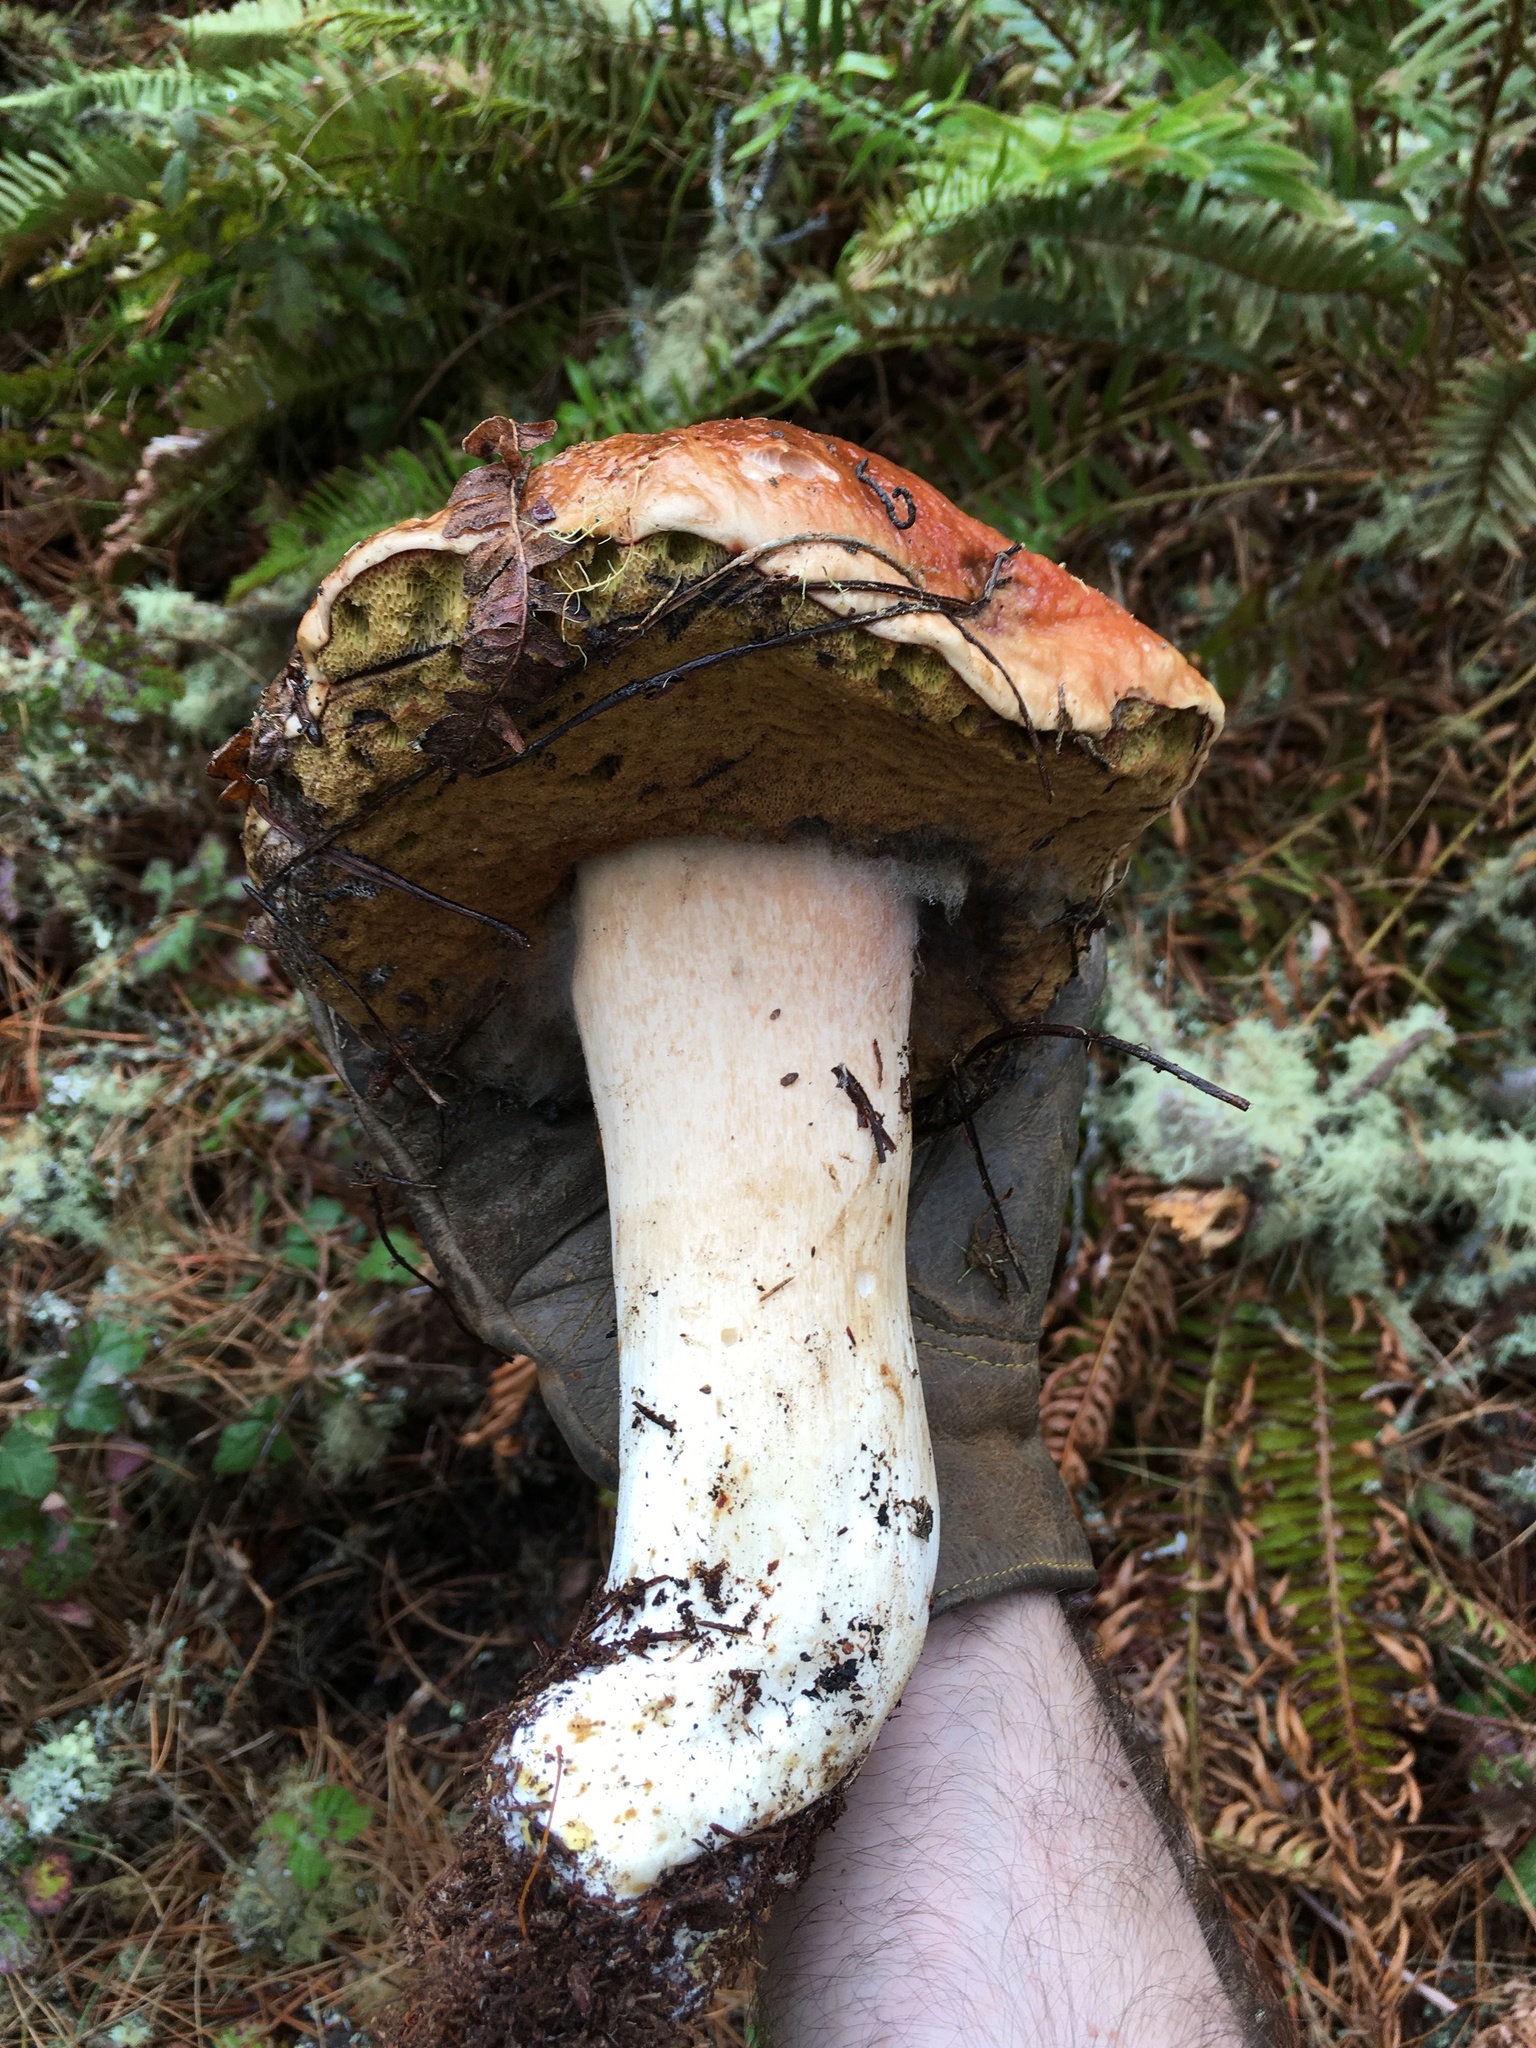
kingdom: Fungi
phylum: Basidiomycota
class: Agaricomycetes
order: Boletales
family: Boletaceae
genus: Boletus
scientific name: Boletus edulis
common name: Cep
